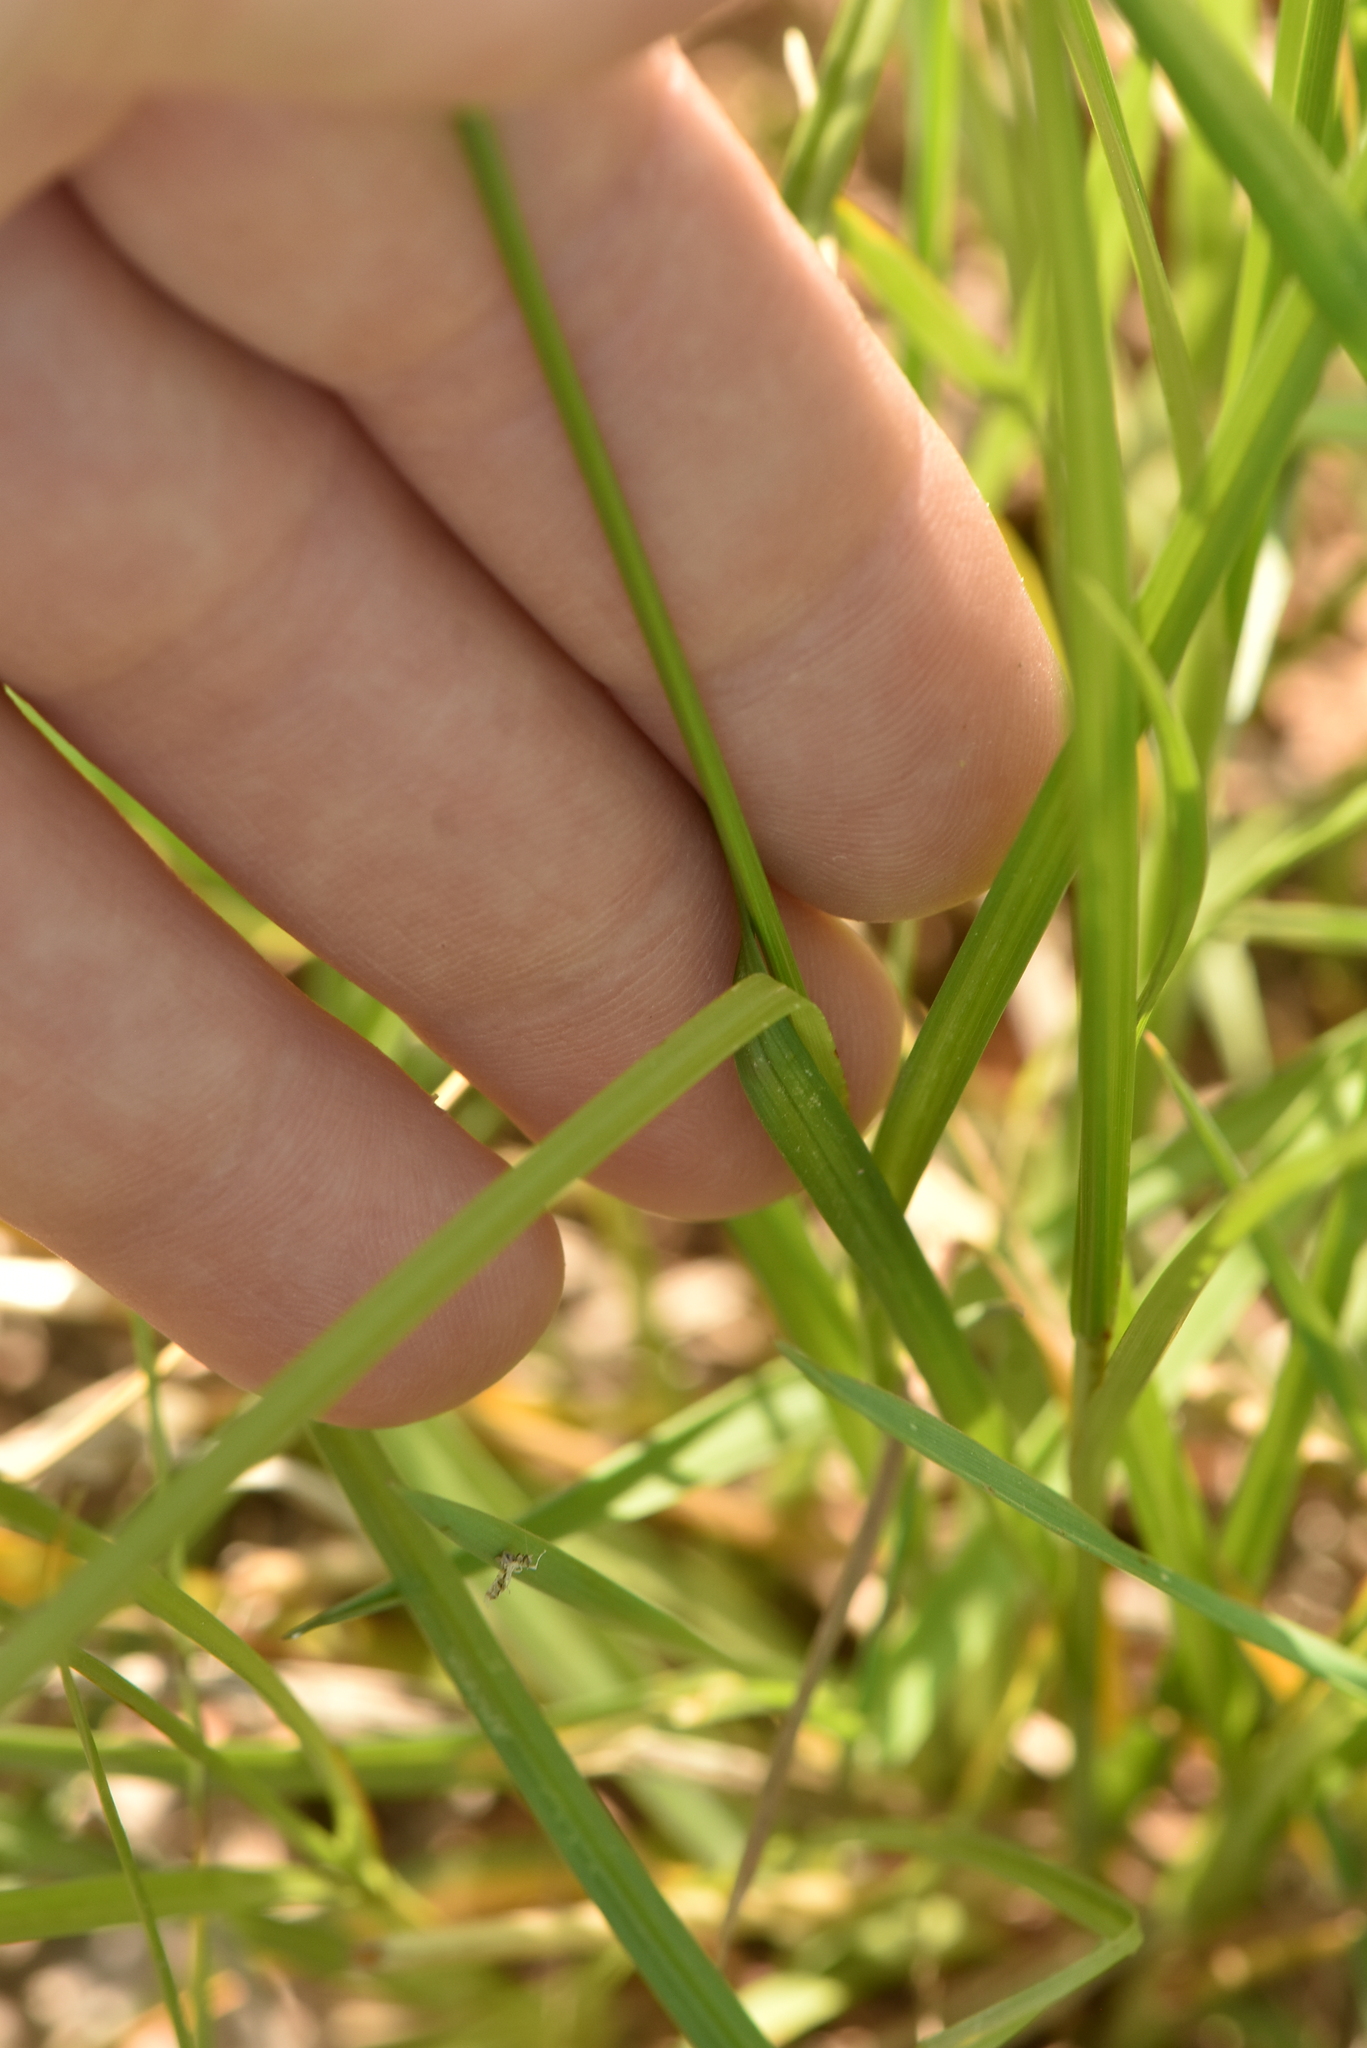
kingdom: Plantae
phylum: Tracheophyta
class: Liliopsida
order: Poales
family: Cyperaceae
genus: Carex
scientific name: Carex spicata
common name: Spiked sedge
